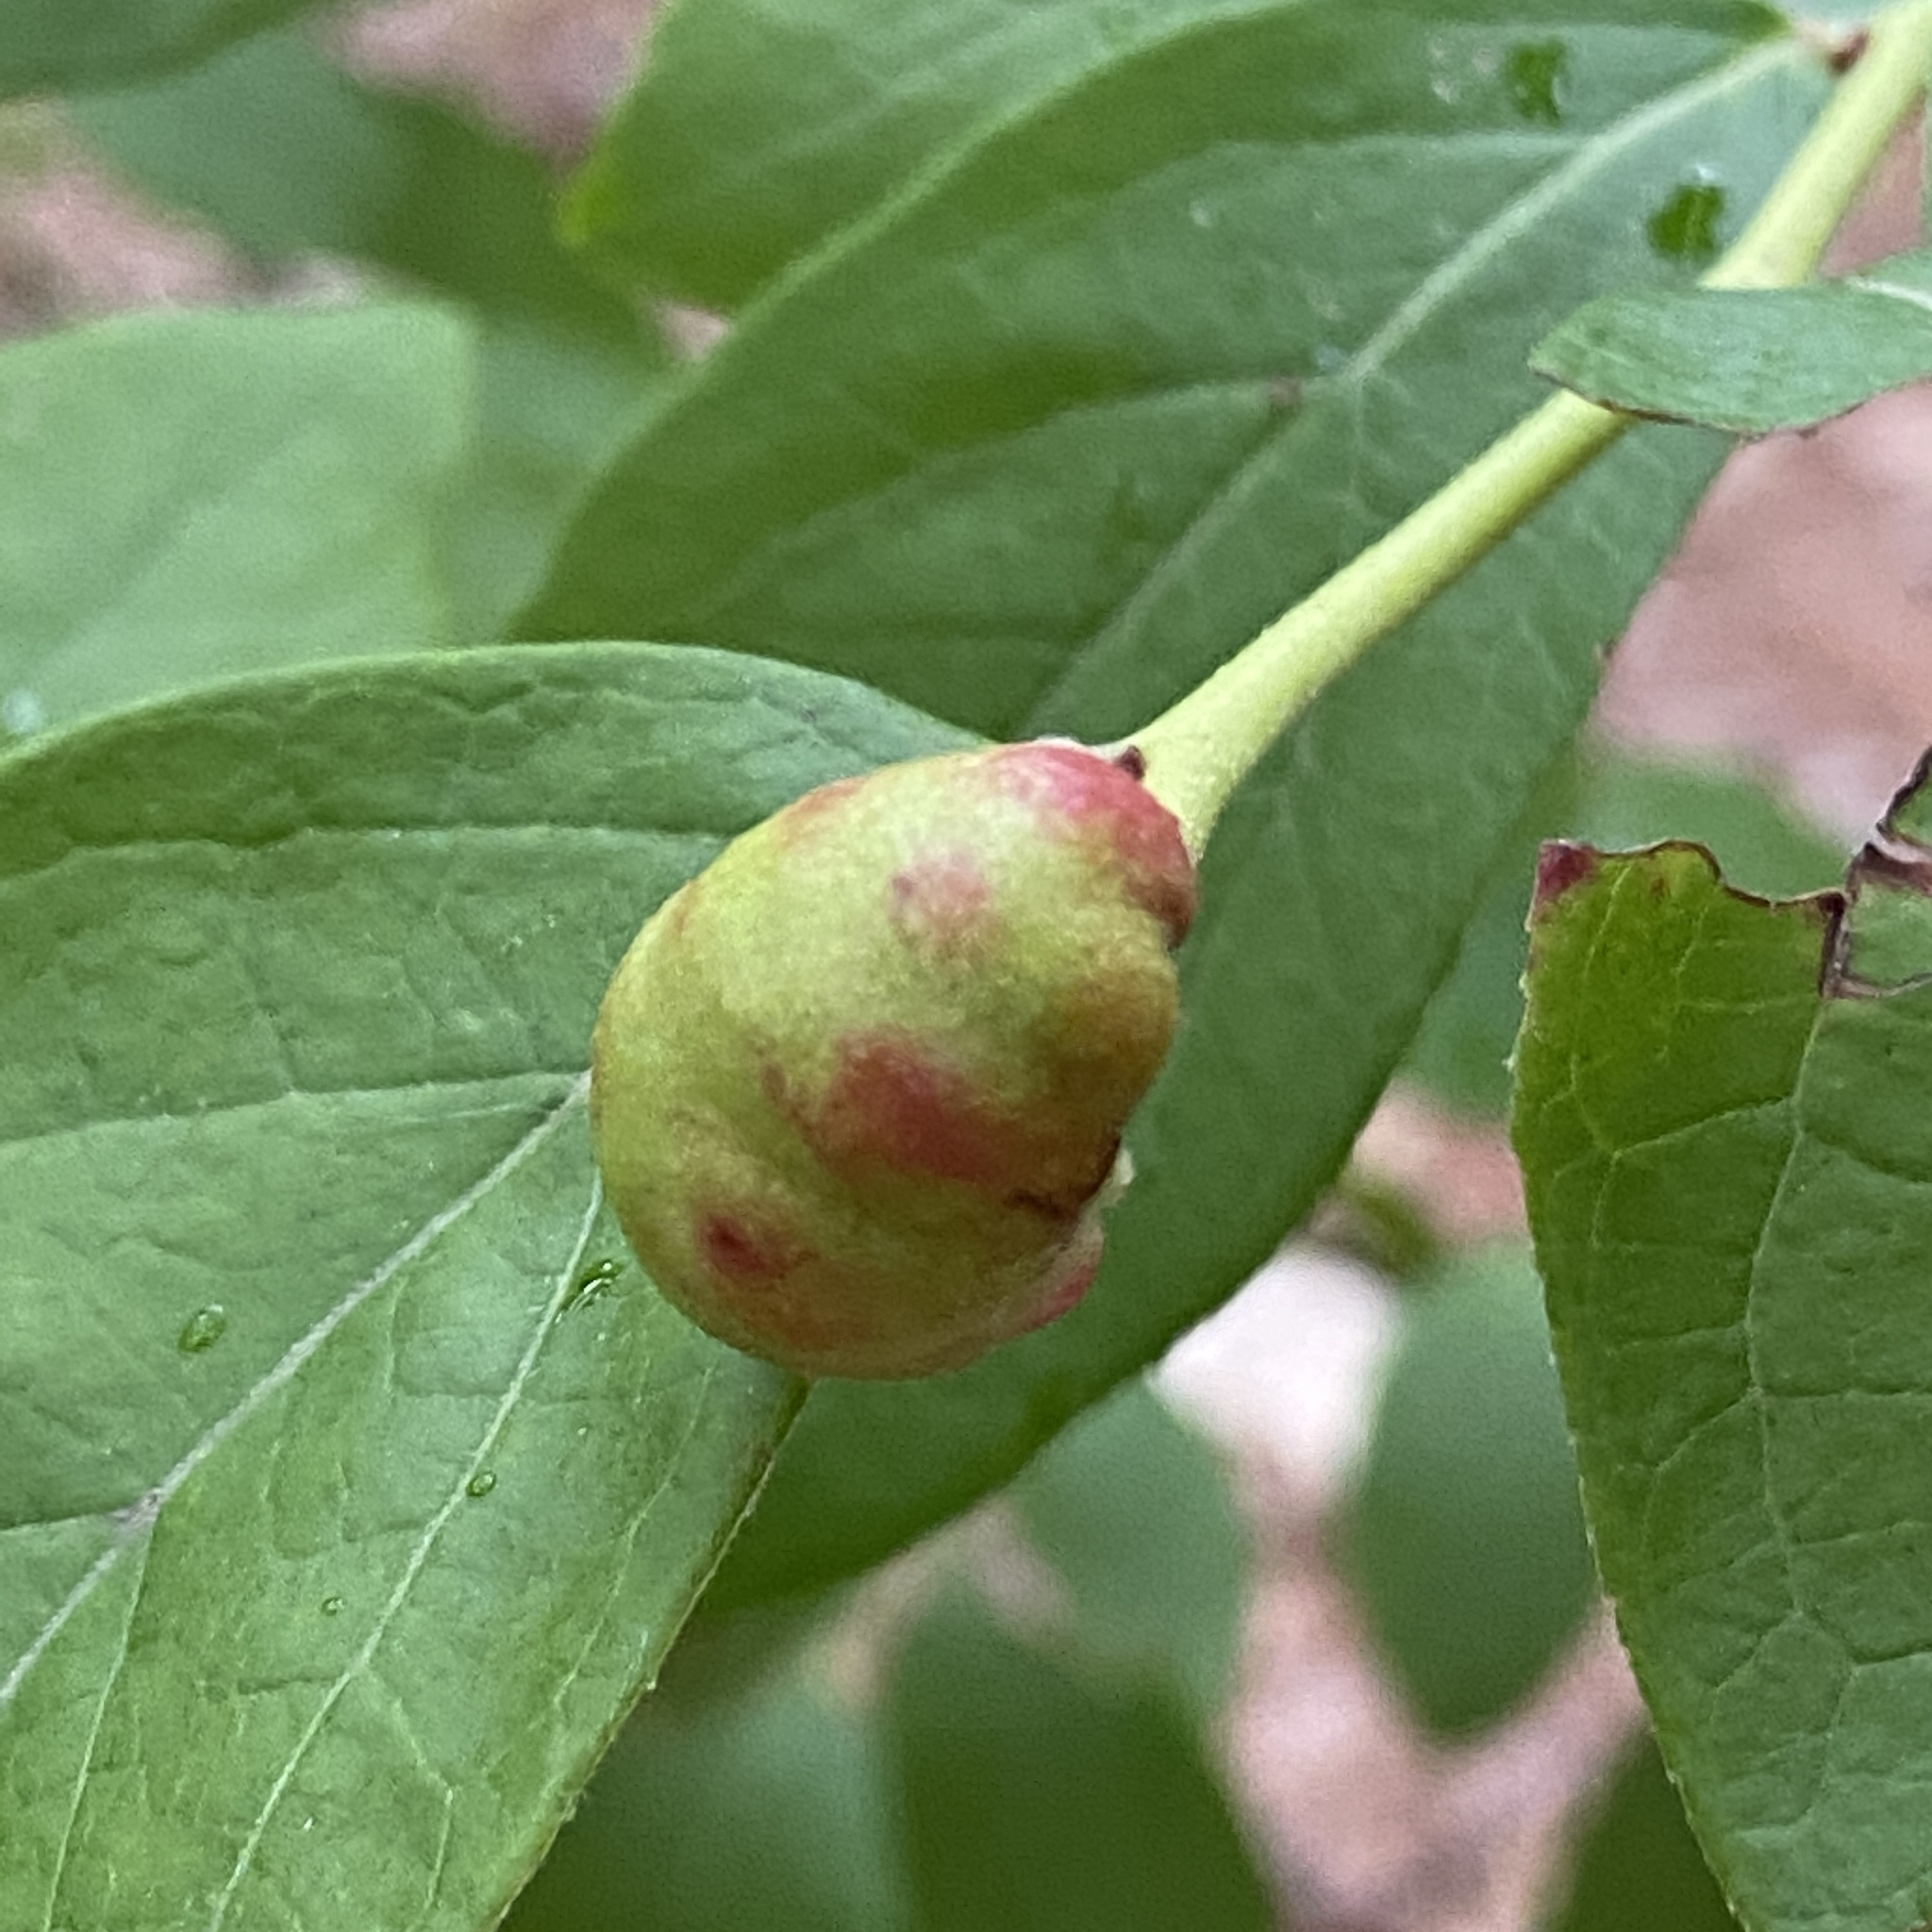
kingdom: Animalia
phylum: Arthropoda
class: Insecta
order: Hymenoptera
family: Pteromalidae
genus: Hemadas
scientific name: Hemadas nubilipennis
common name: Blueberry stem gall wasp
